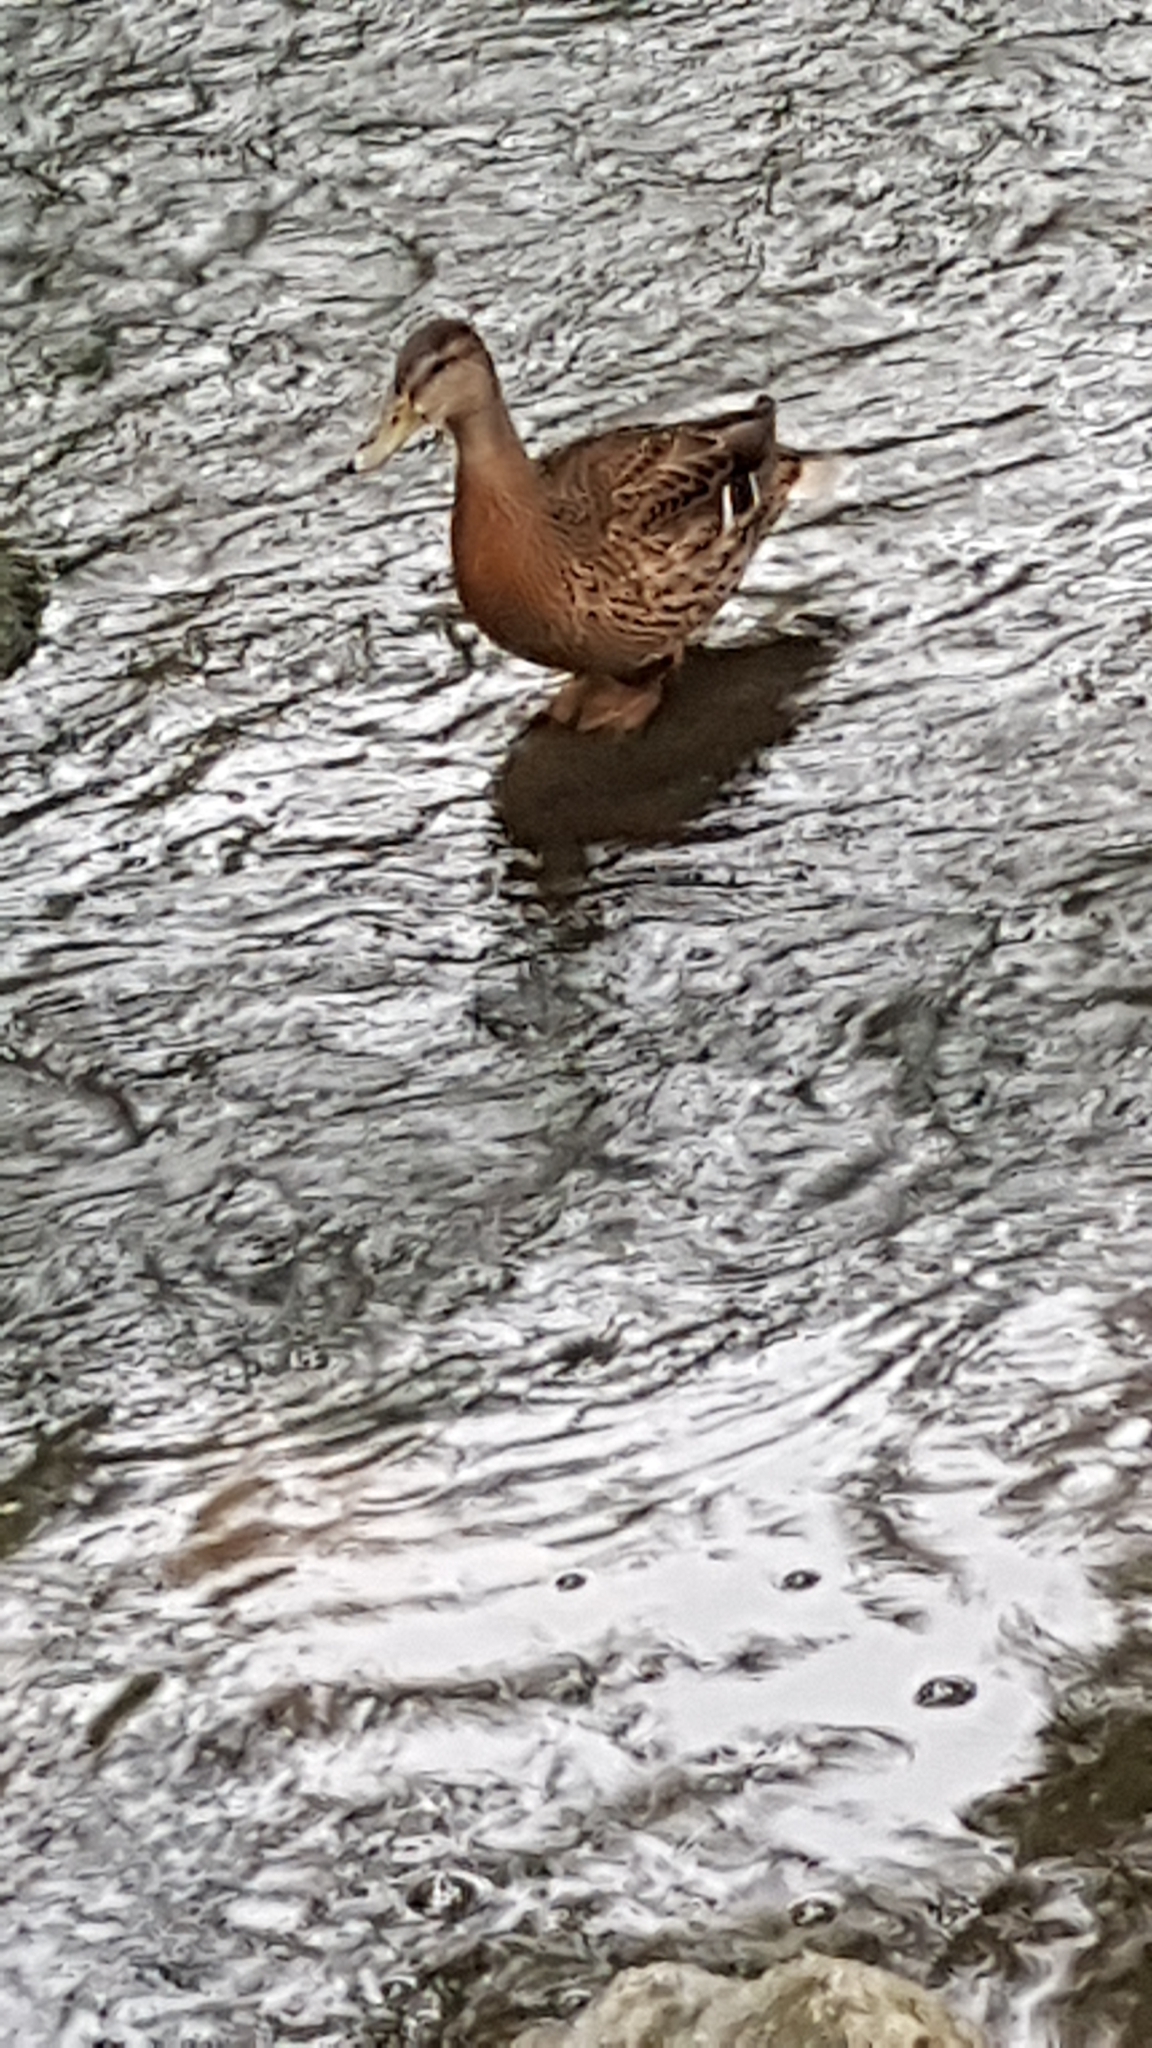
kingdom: Animalia
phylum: Chordata
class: Aves
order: Anseriformes
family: Anatidae
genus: Anas
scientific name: Anas platyrhynchos
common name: Mallard
